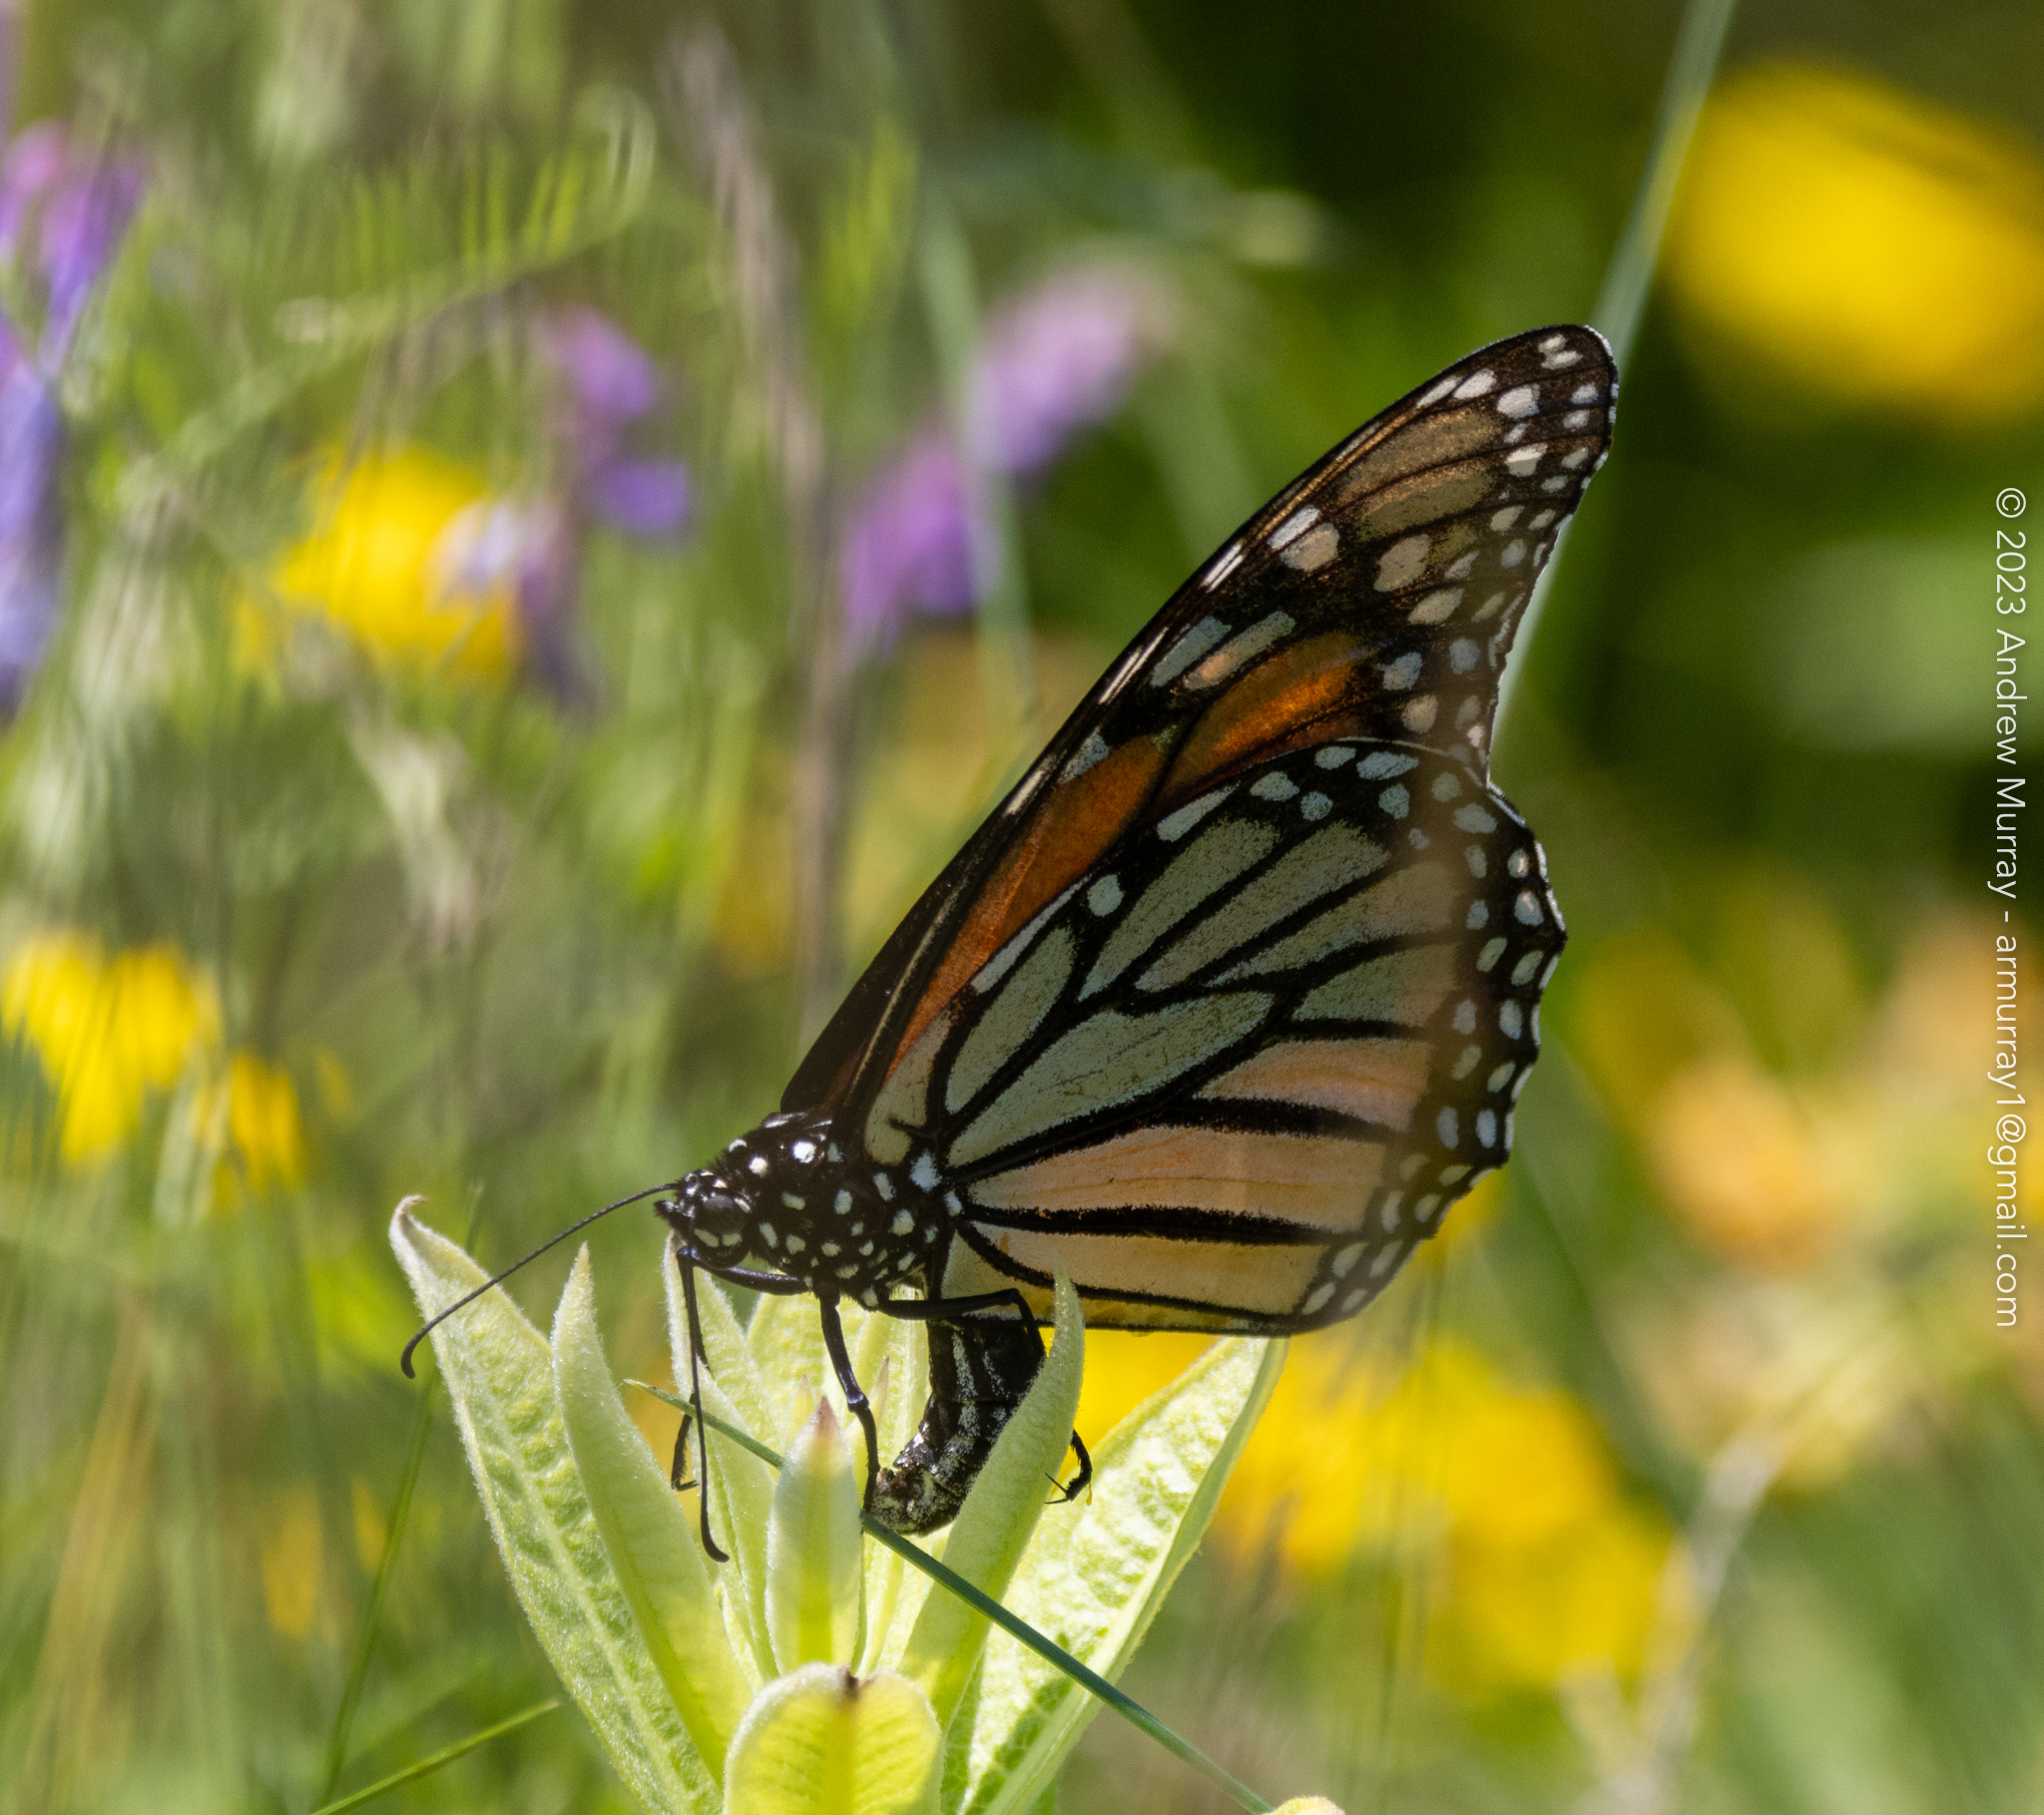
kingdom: Animalia
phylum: Arthropoda
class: Insecta
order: Lepidoptera
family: Nymphalidae
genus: Danaus
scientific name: Danaus plexippus
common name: Monarch
